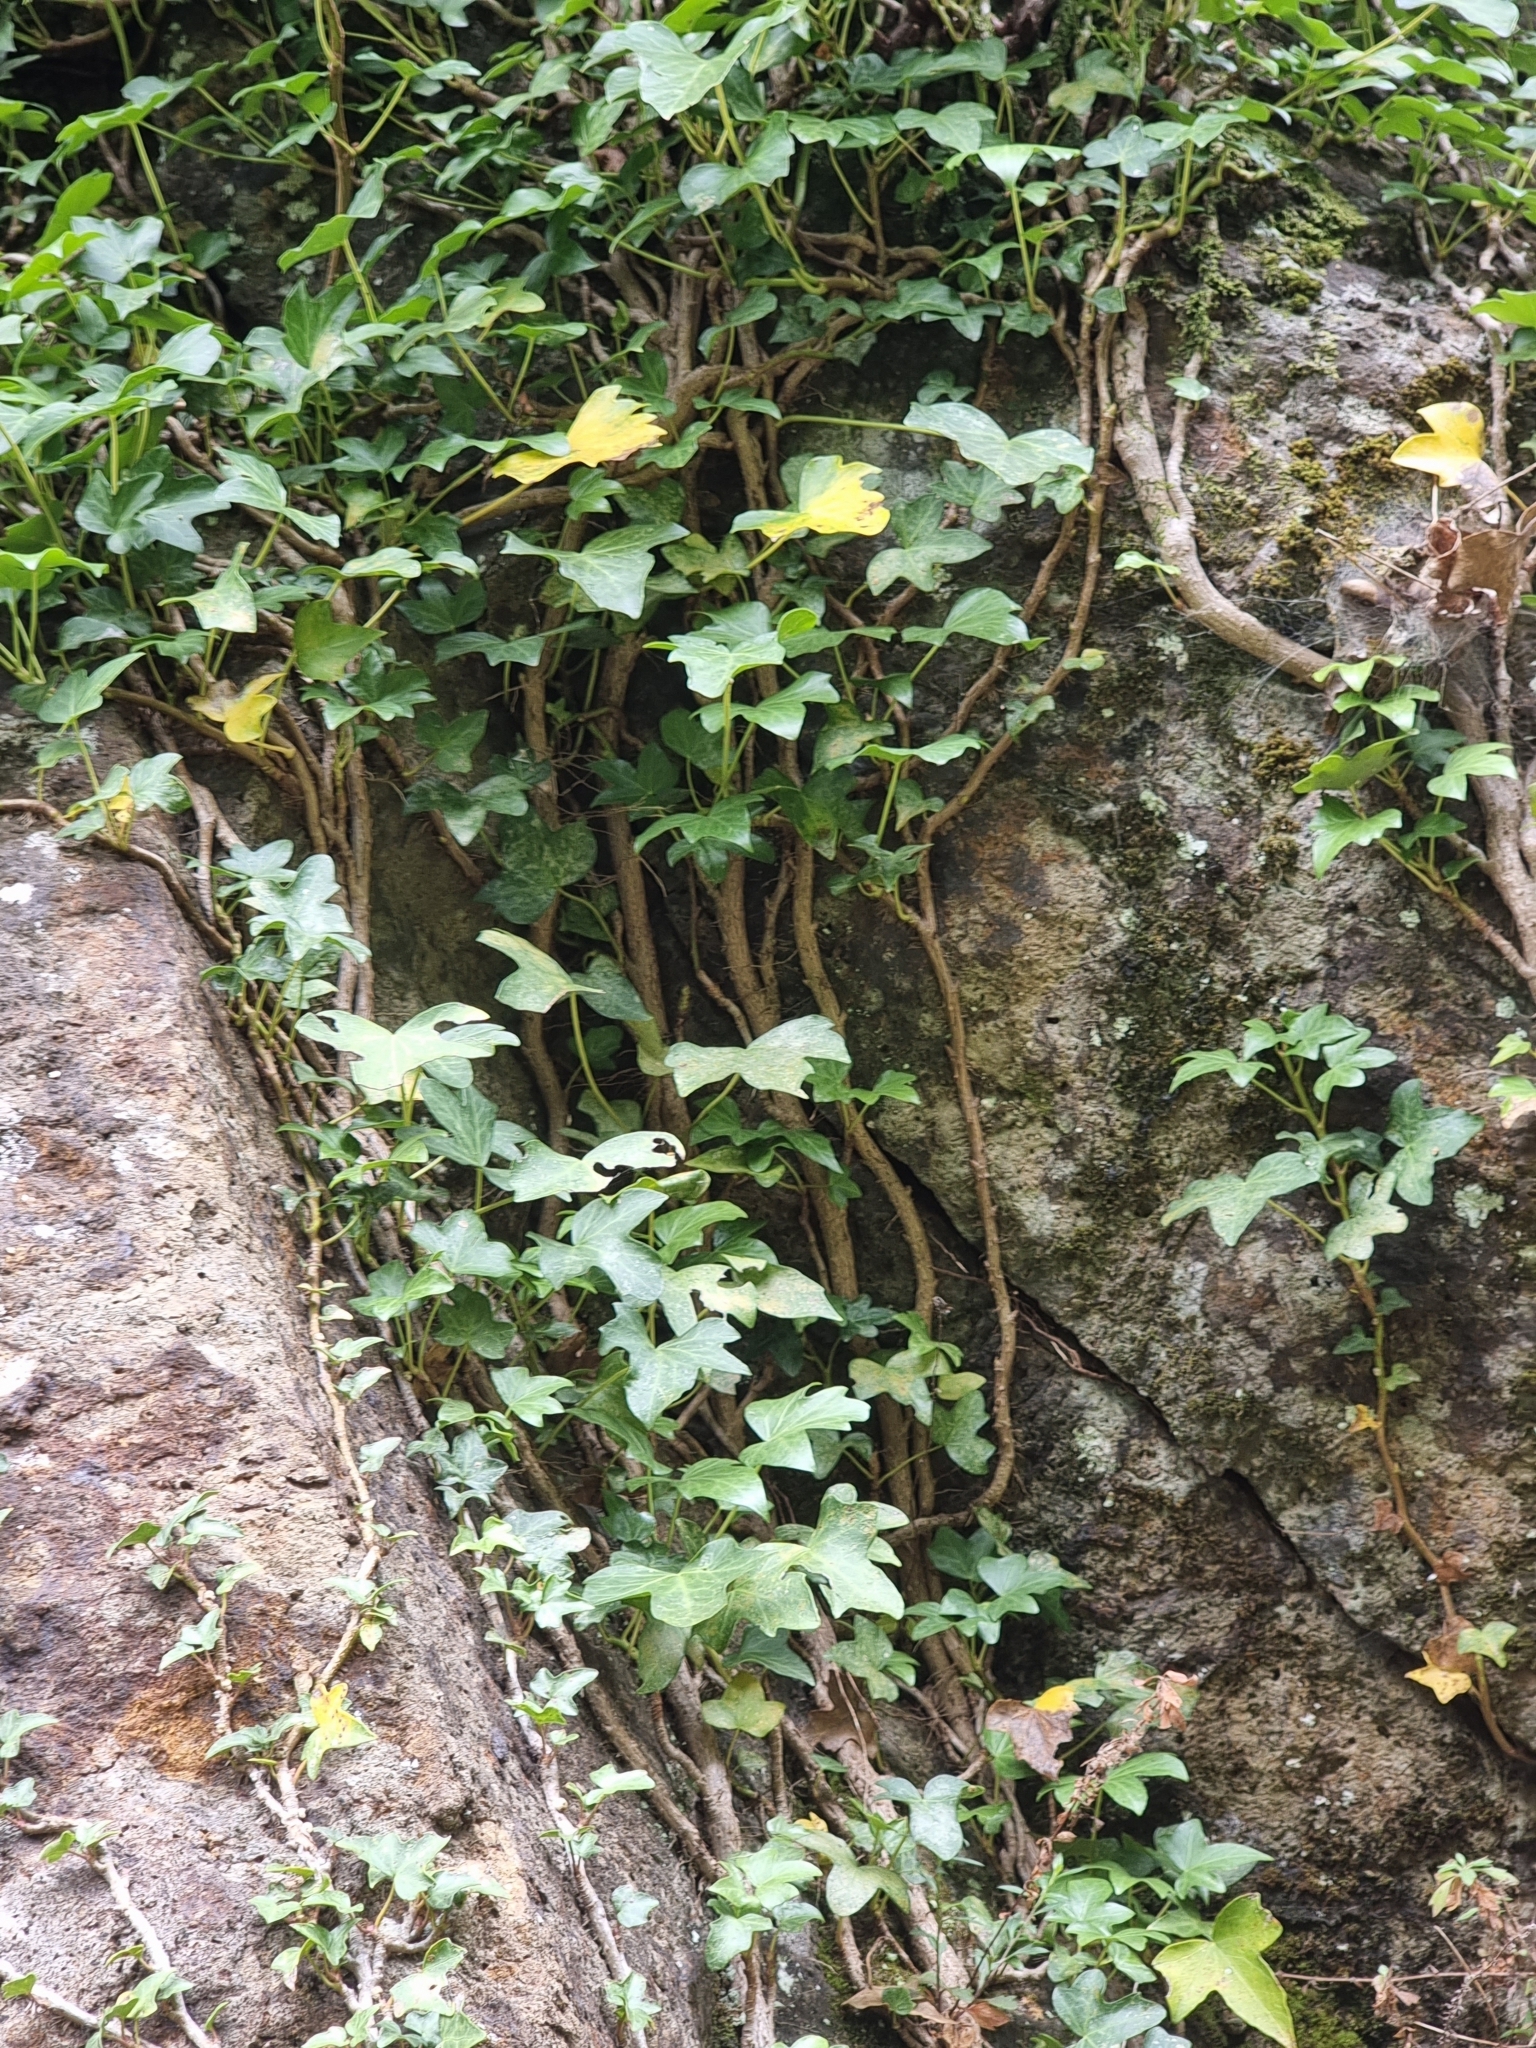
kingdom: Plantae
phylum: Tracheophyta
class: Magnoliopsida
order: Apiales
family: Araliaceae
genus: Hedera
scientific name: Hedera maderensis
